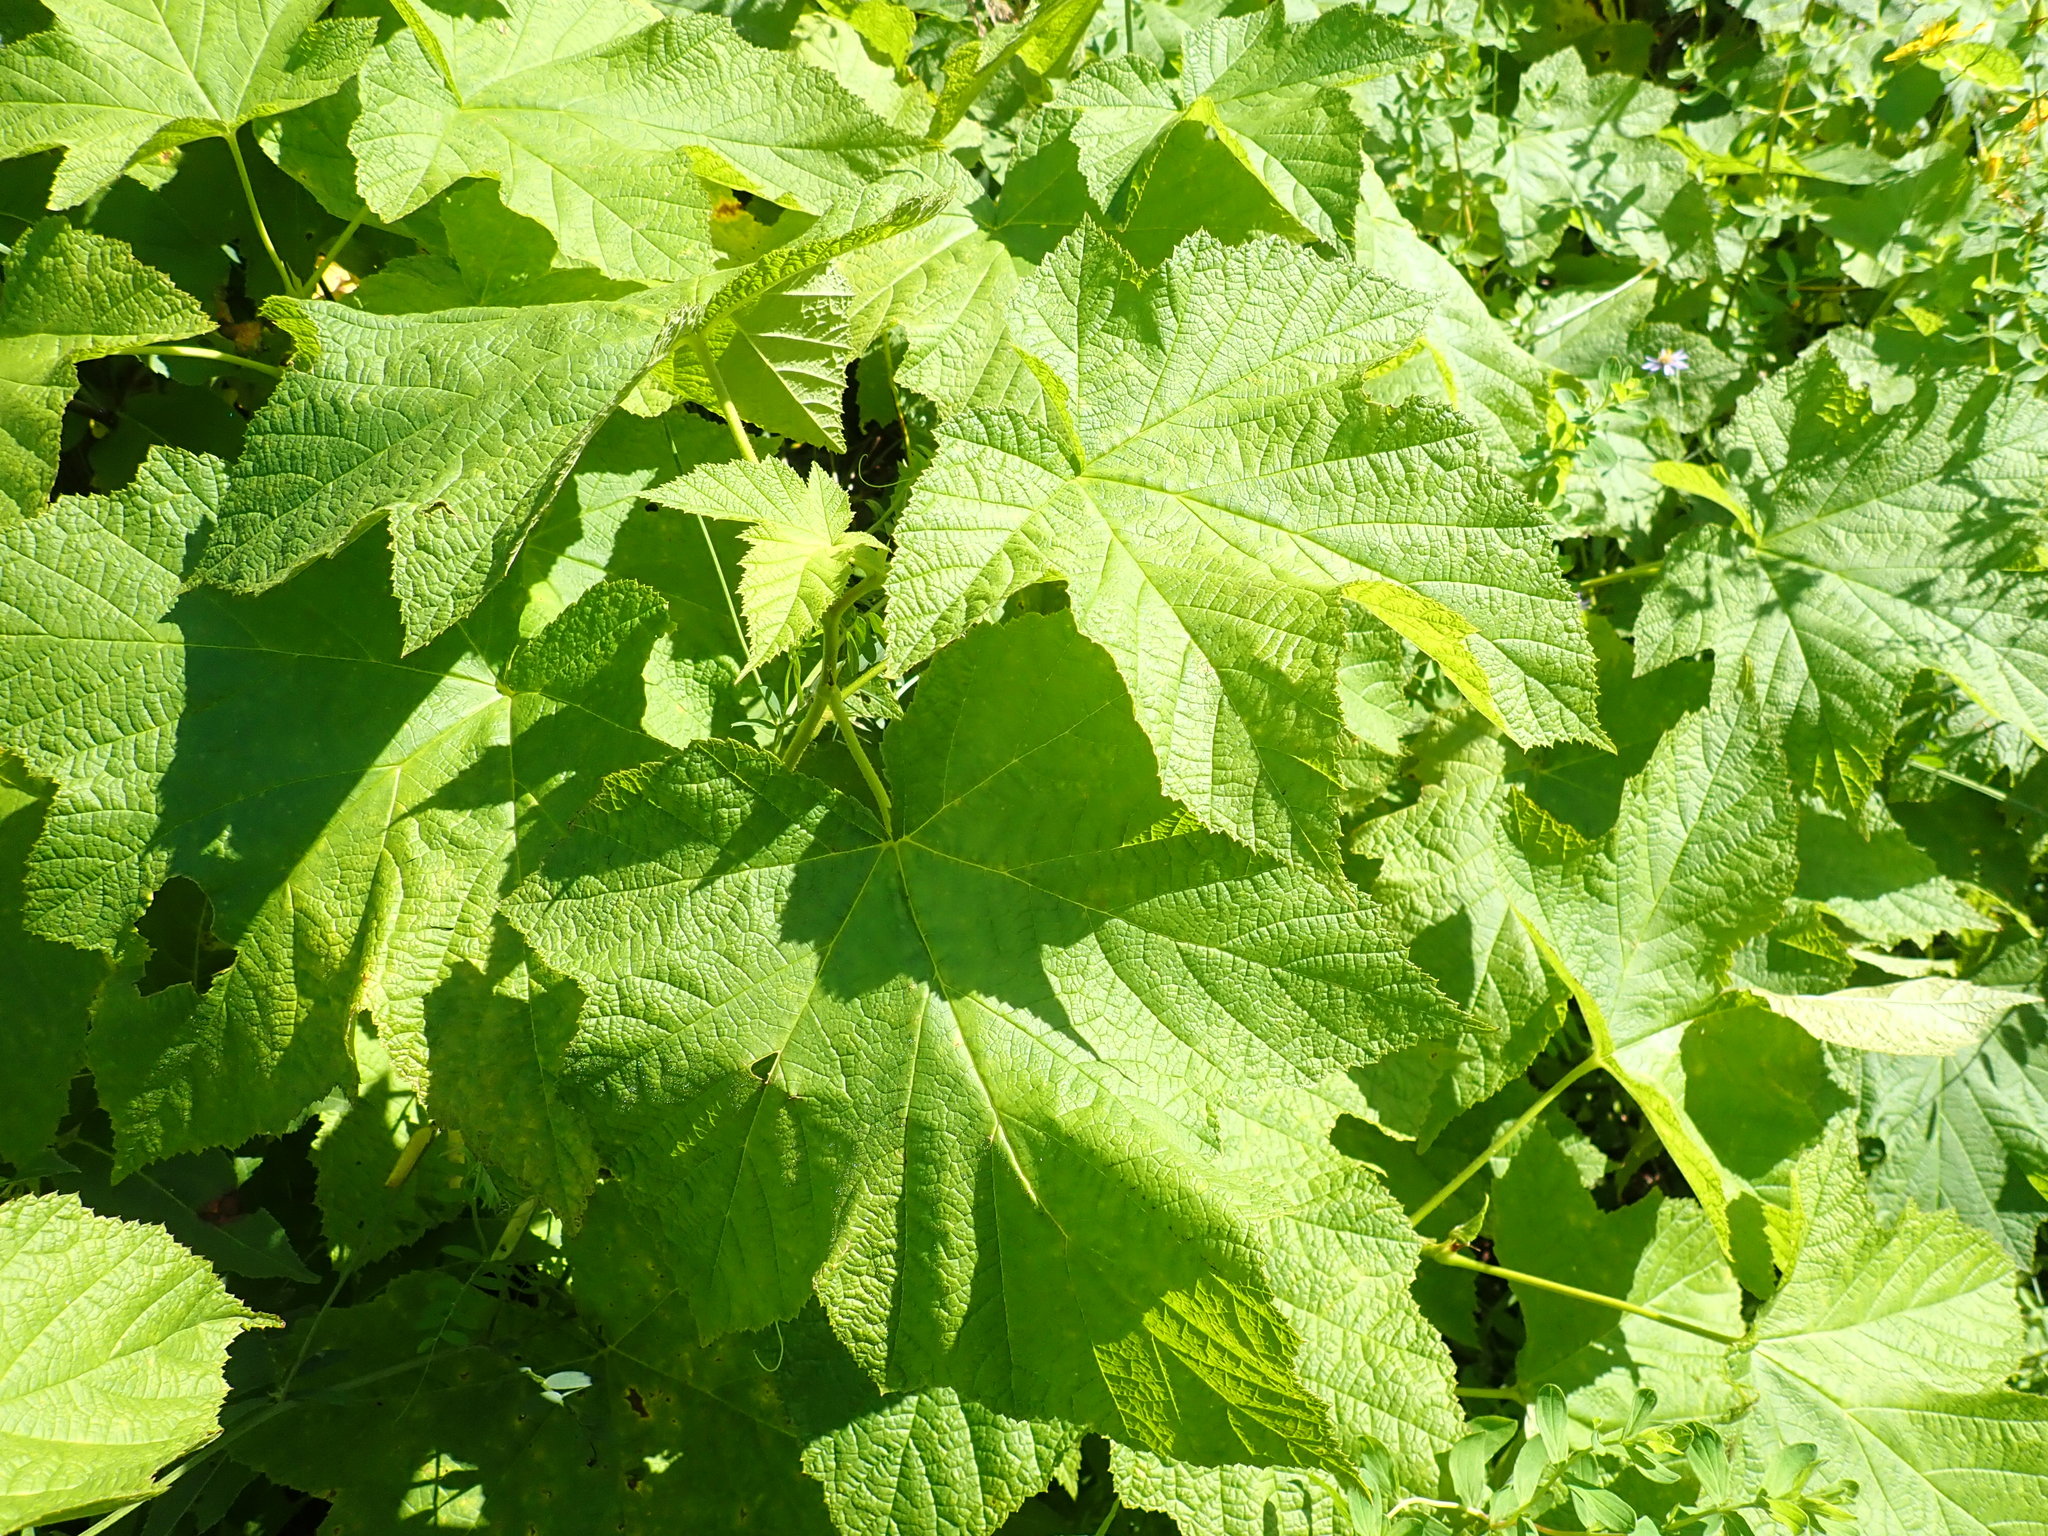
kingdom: Plantae
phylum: Tracheophyta
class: Magnoliopsida
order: Rosales
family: Rosaceae
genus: Rubus
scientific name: Rubus parviflorus
